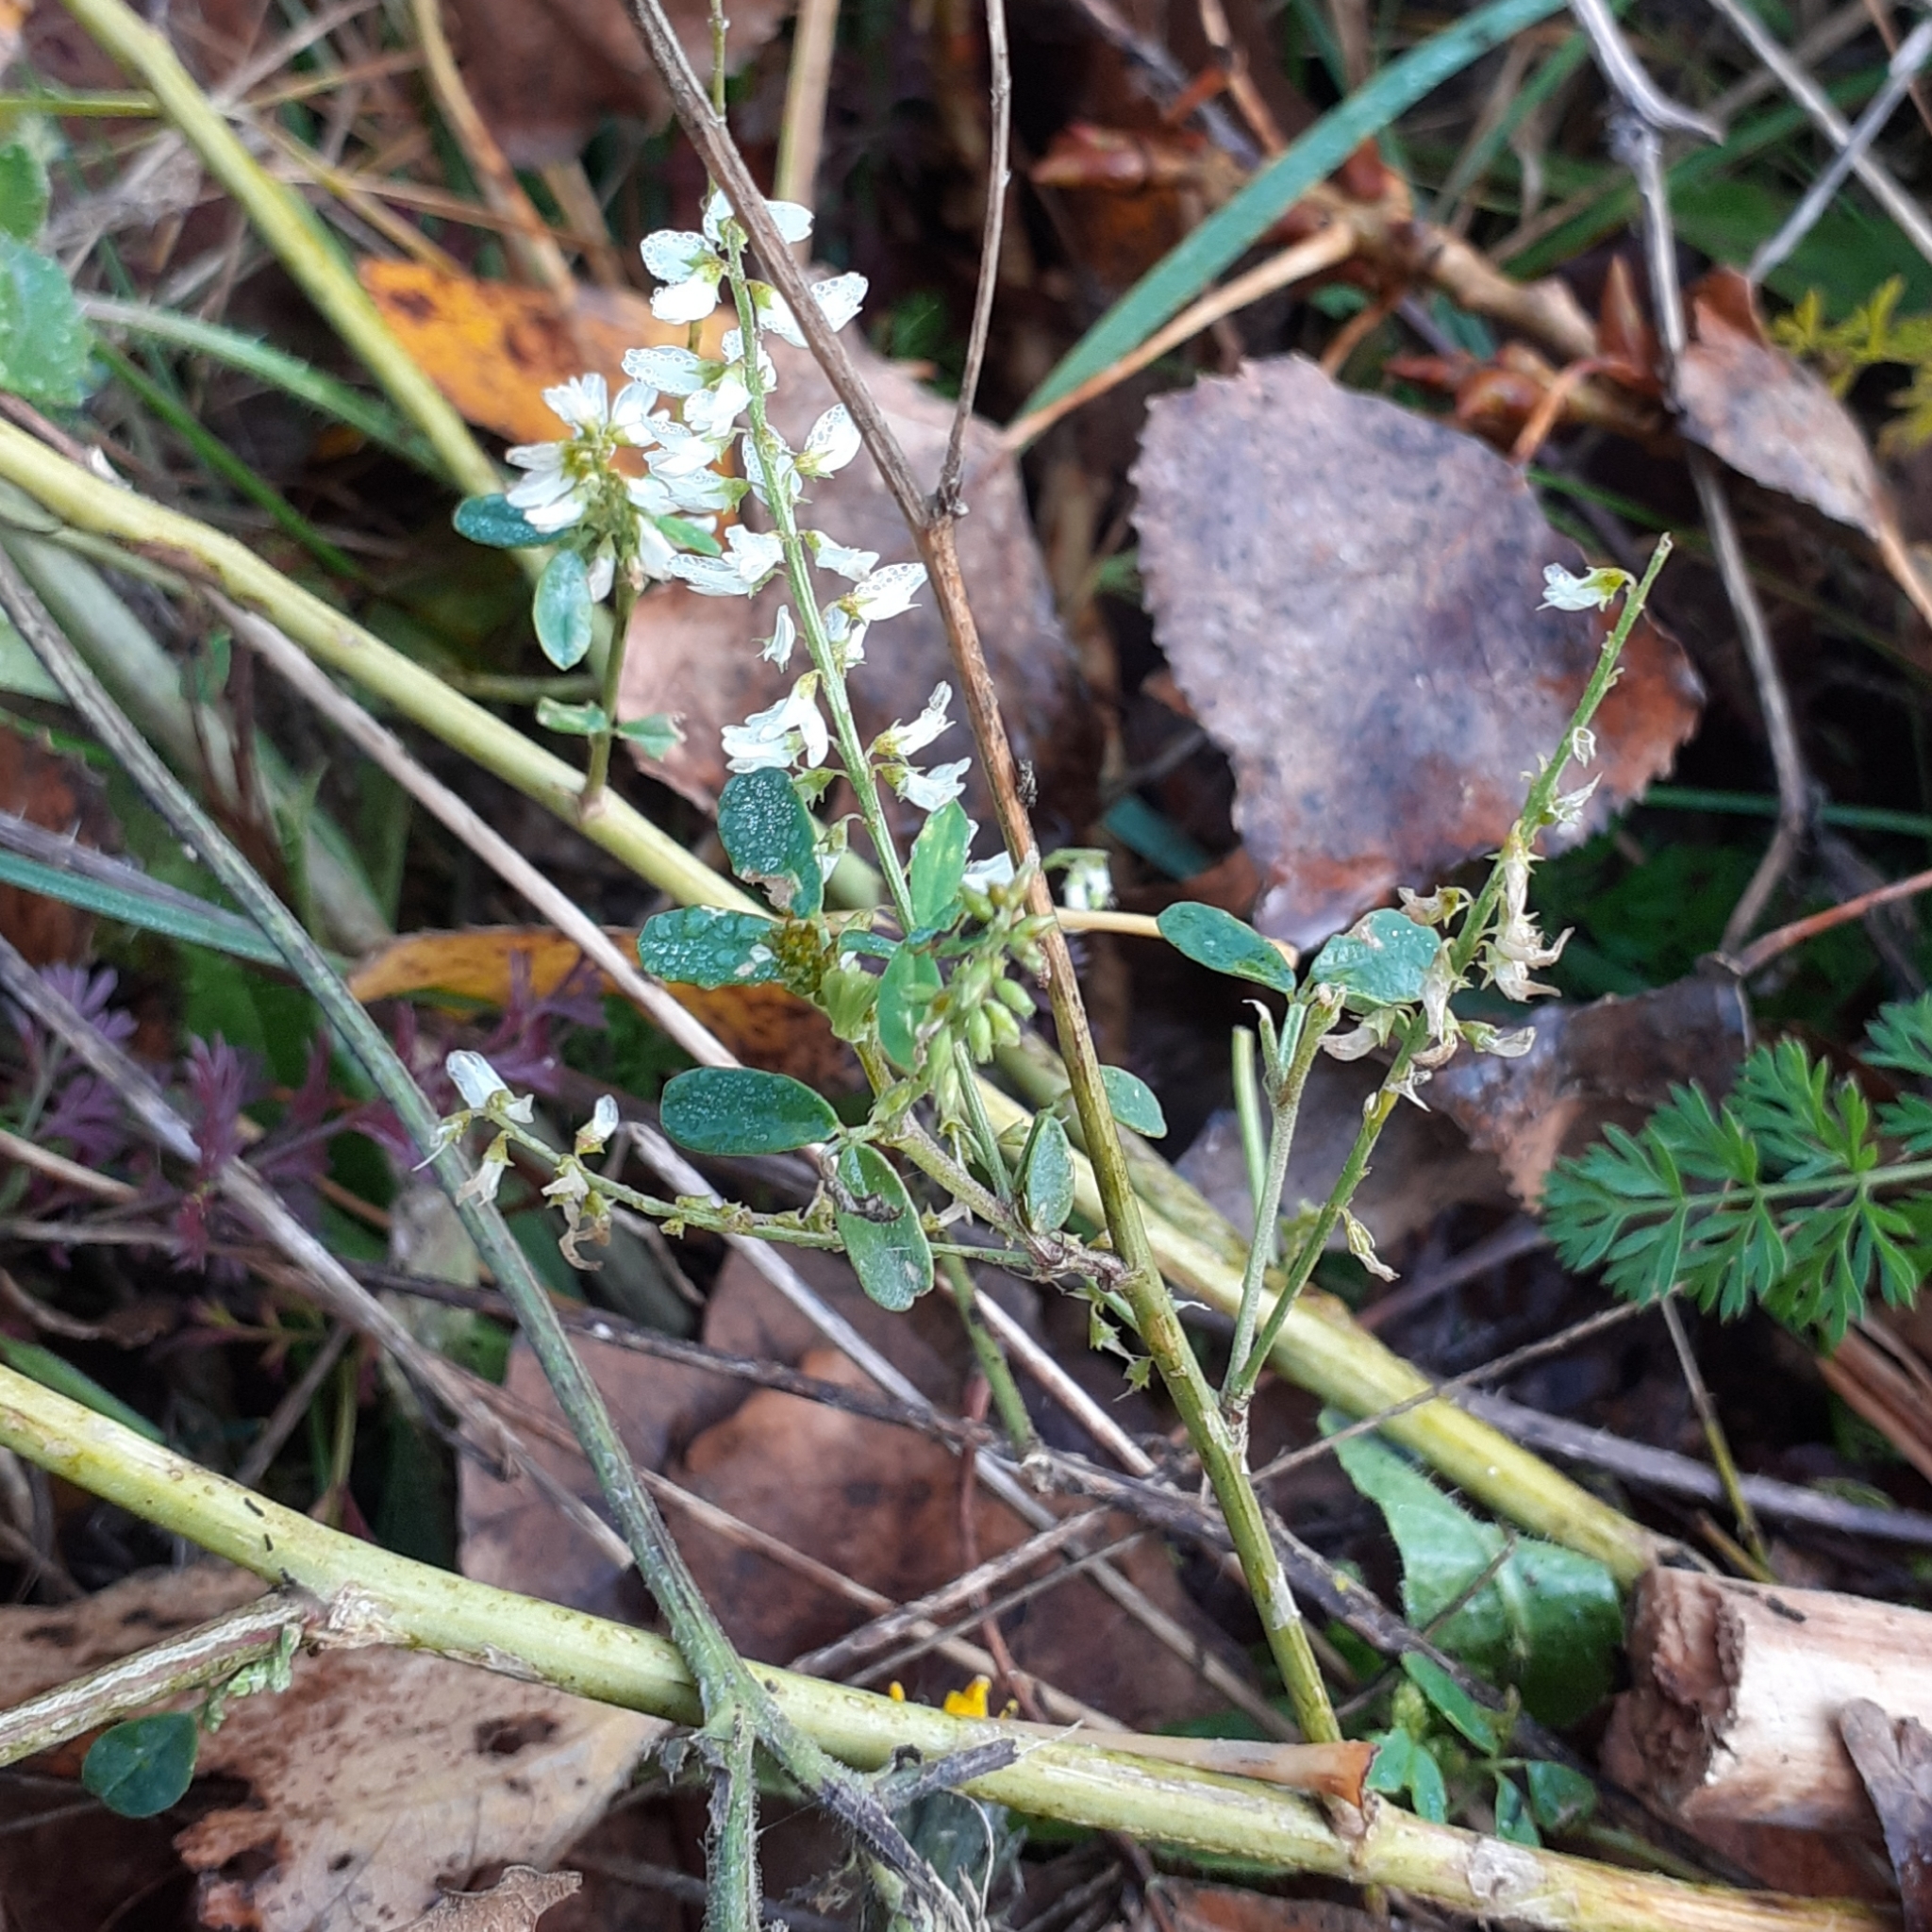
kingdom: Plantae
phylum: Tracheophyta
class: Magnoliopsida
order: Fabales
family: Fabaceae
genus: Melilotus
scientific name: Melilotus albus
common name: White melilot
